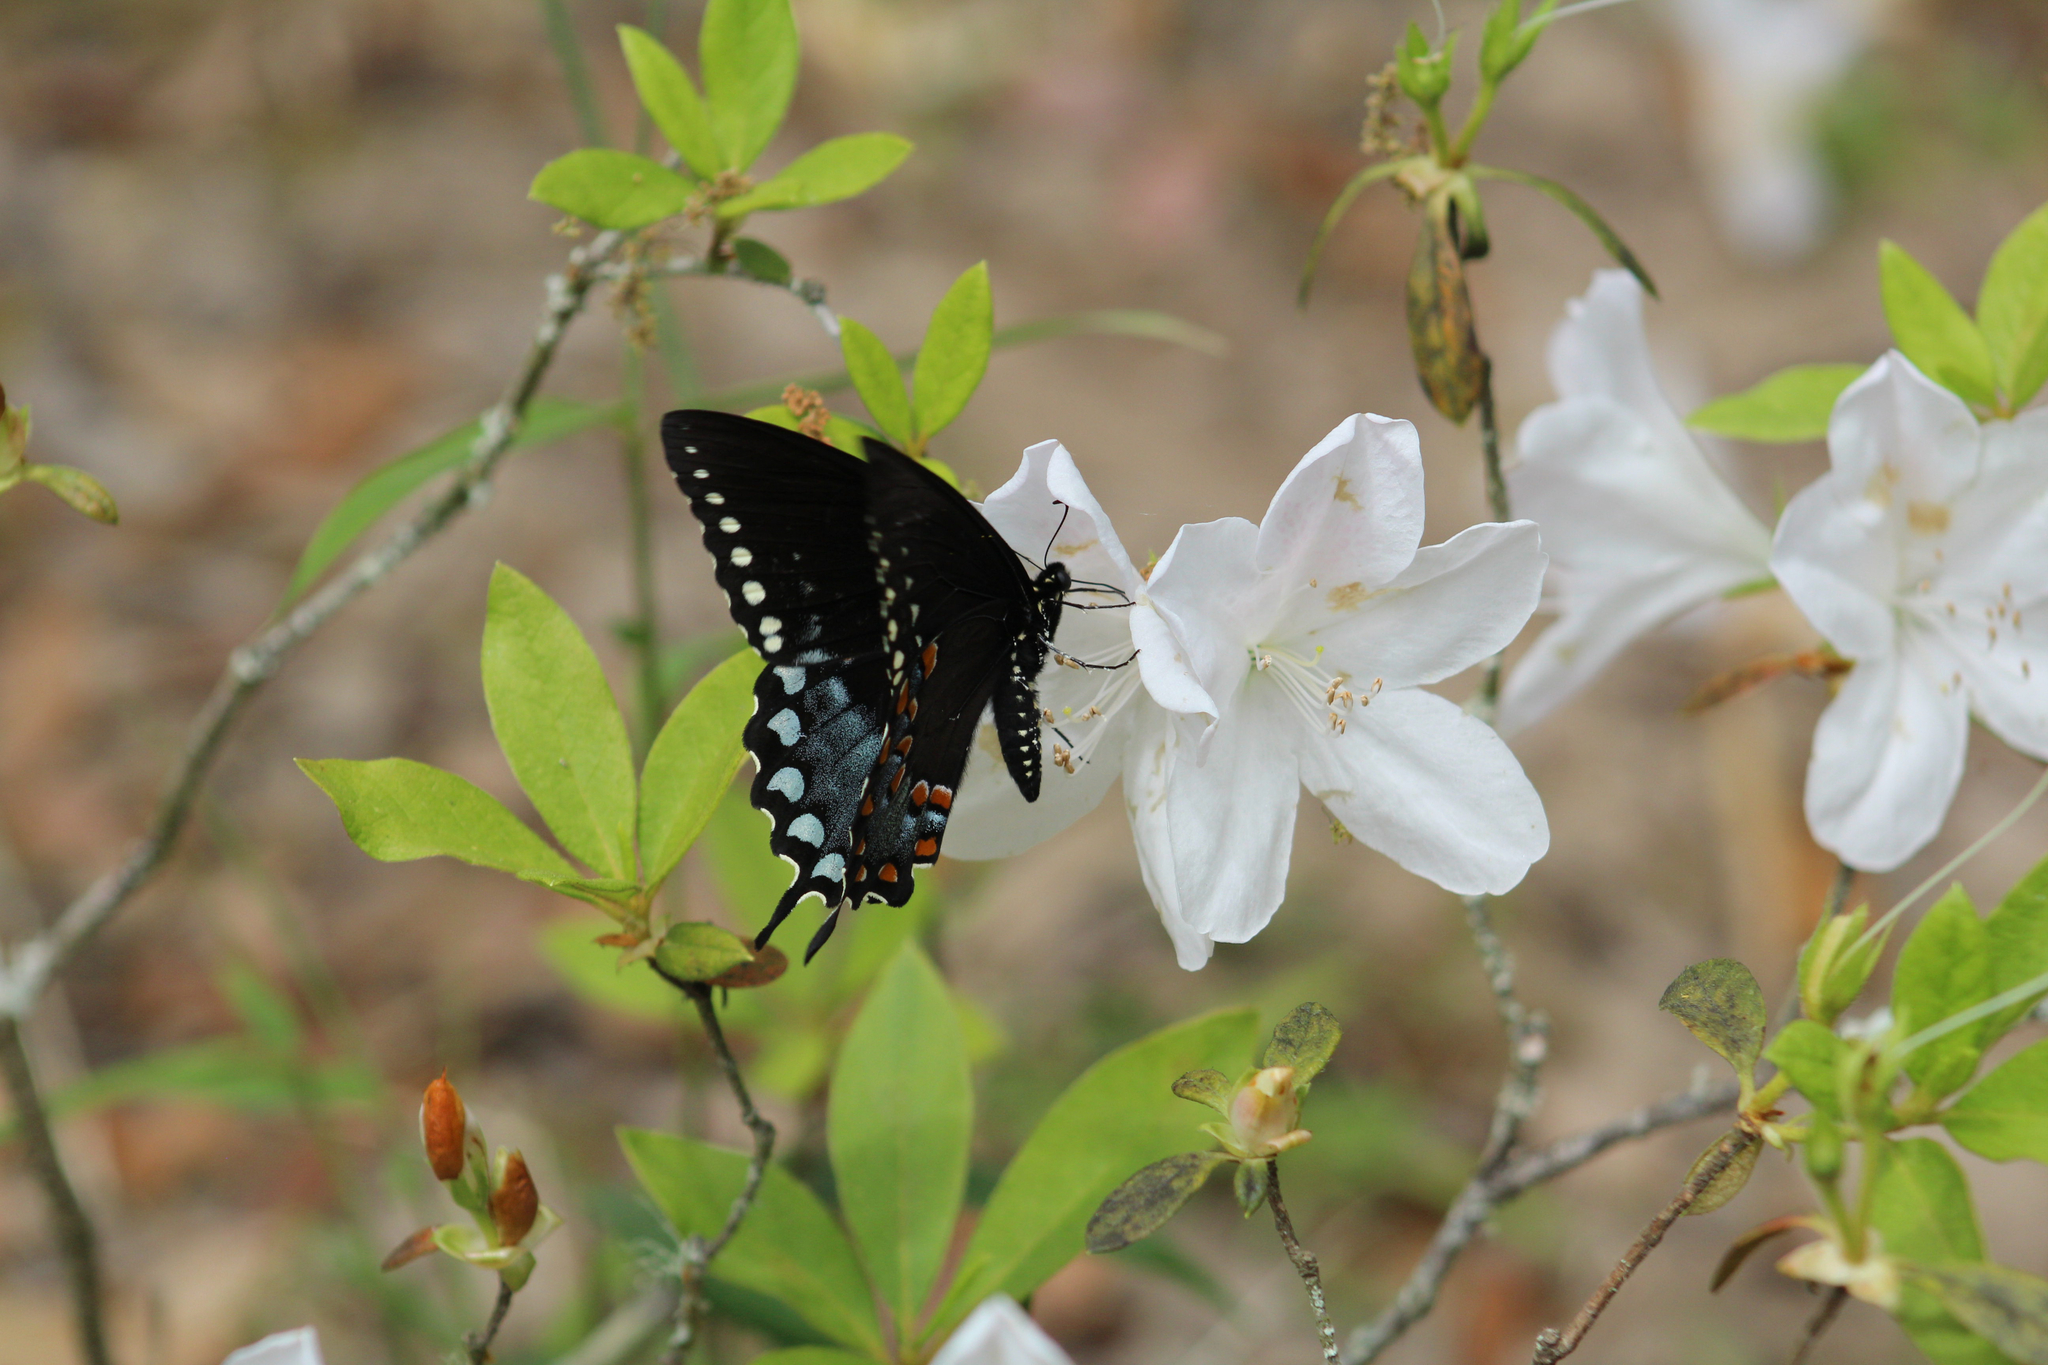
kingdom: Animalia
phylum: Arthropoda
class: Insecta
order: Lepidoptera
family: Papilionidae
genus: Papilio
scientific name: Papilio troilus
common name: Spicebush swallowtail
